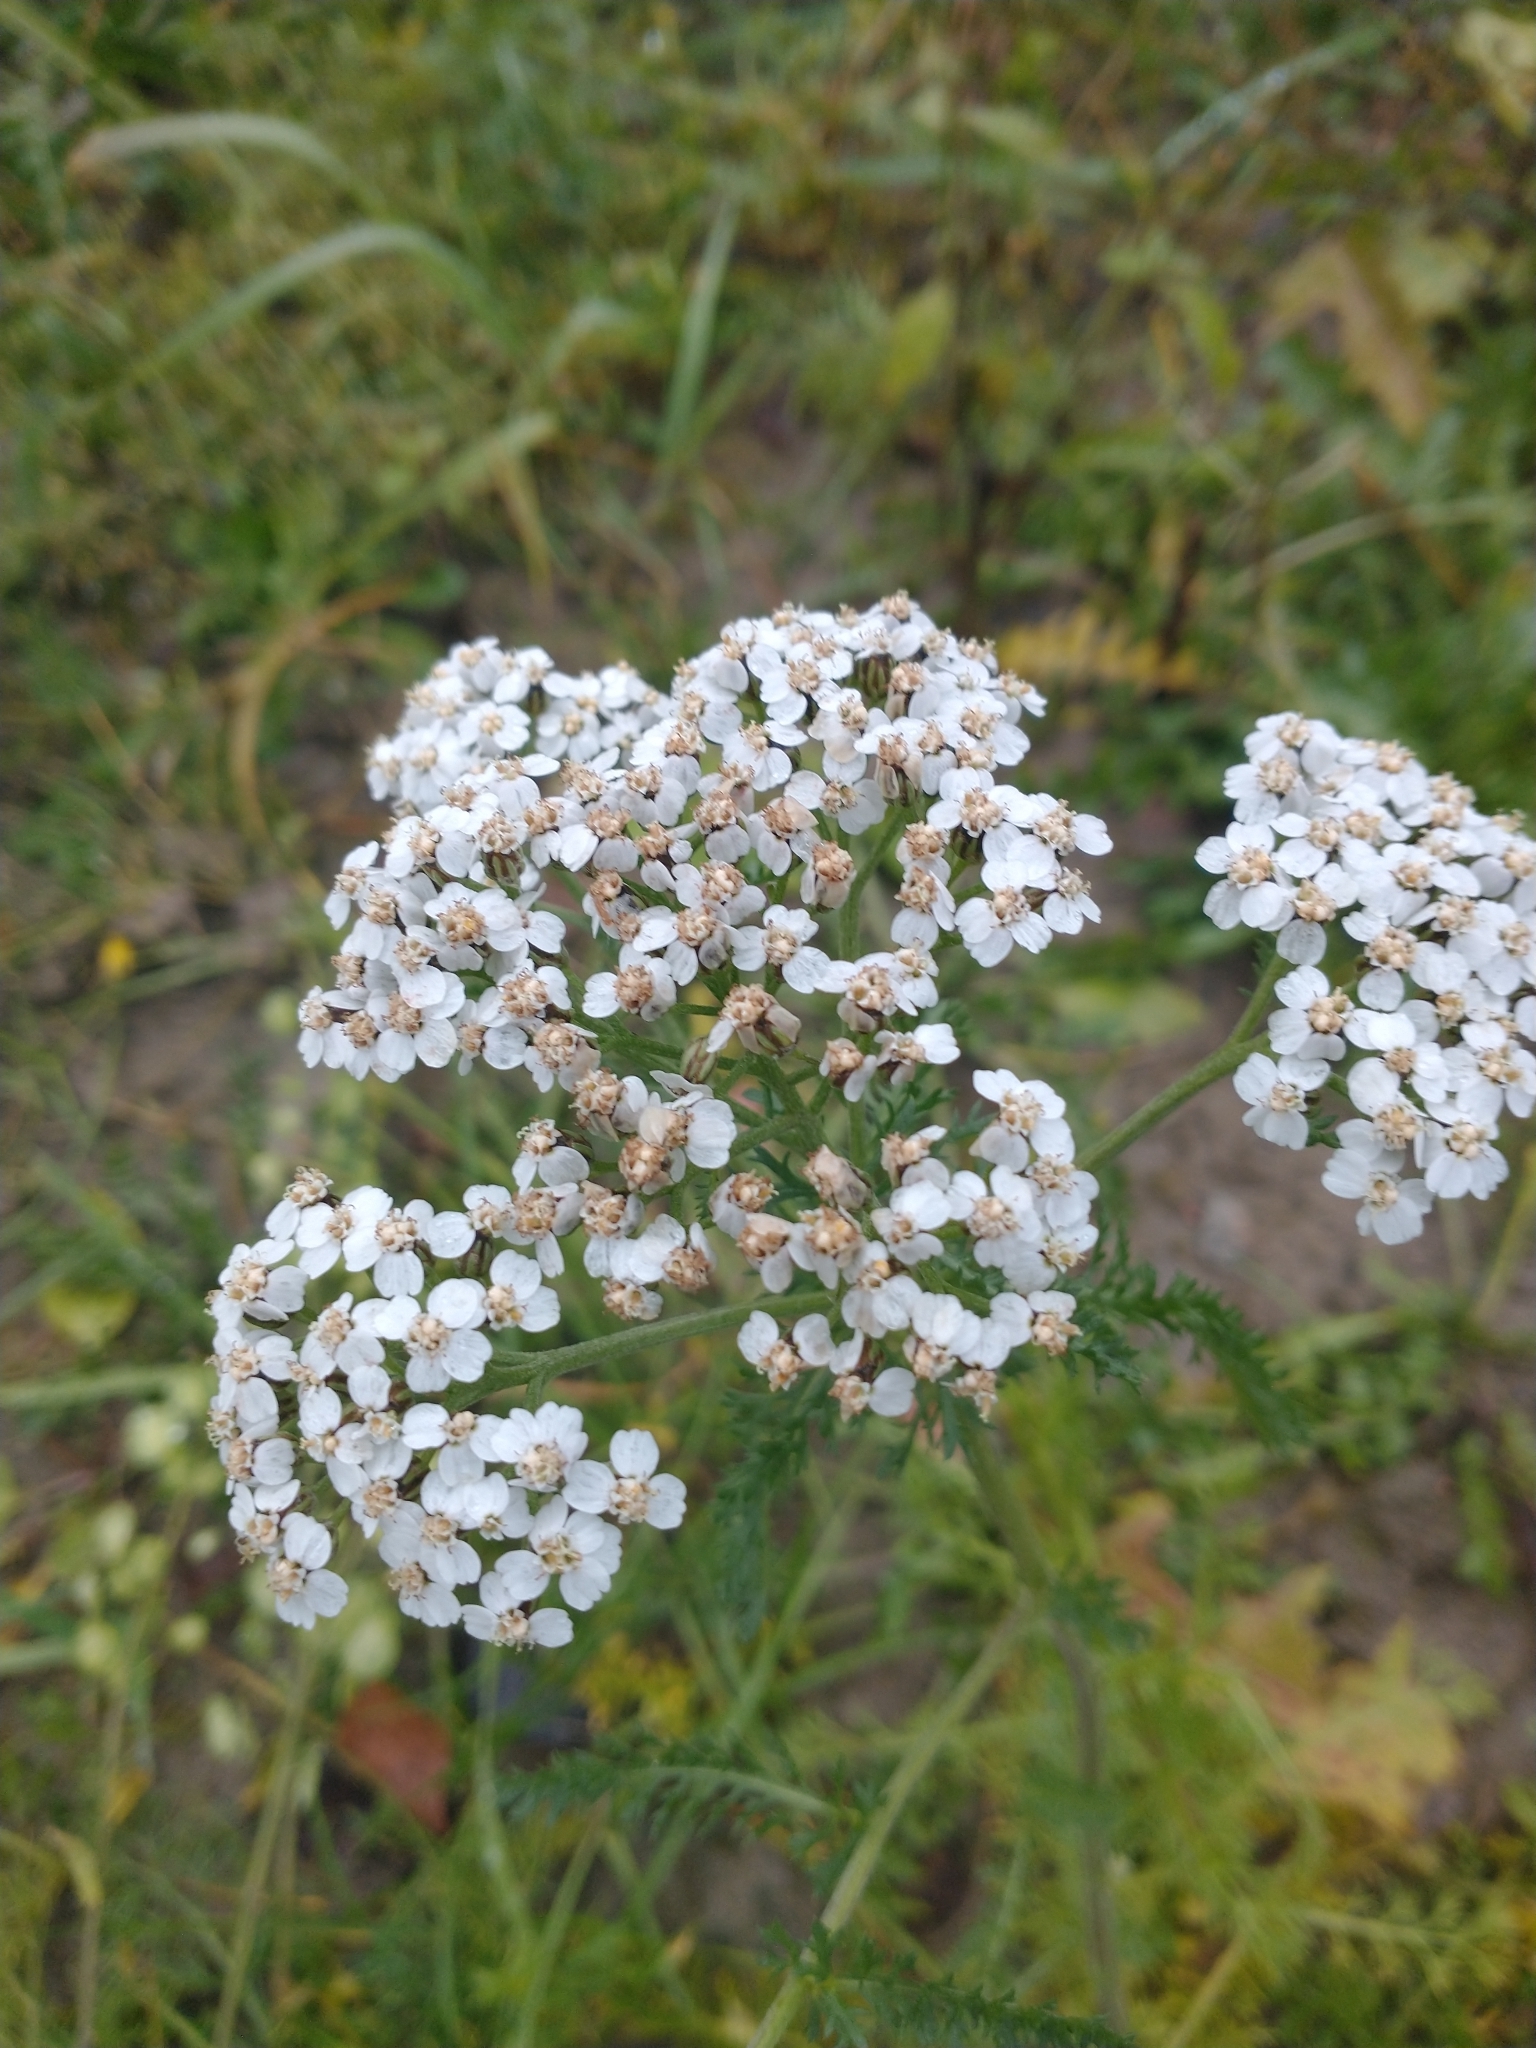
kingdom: Plantae
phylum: Tracheophyta
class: Magnoliopsida
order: Asterales
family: Asteraceae
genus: Achillea
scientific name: Achillea millefolium
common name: Yarrow
